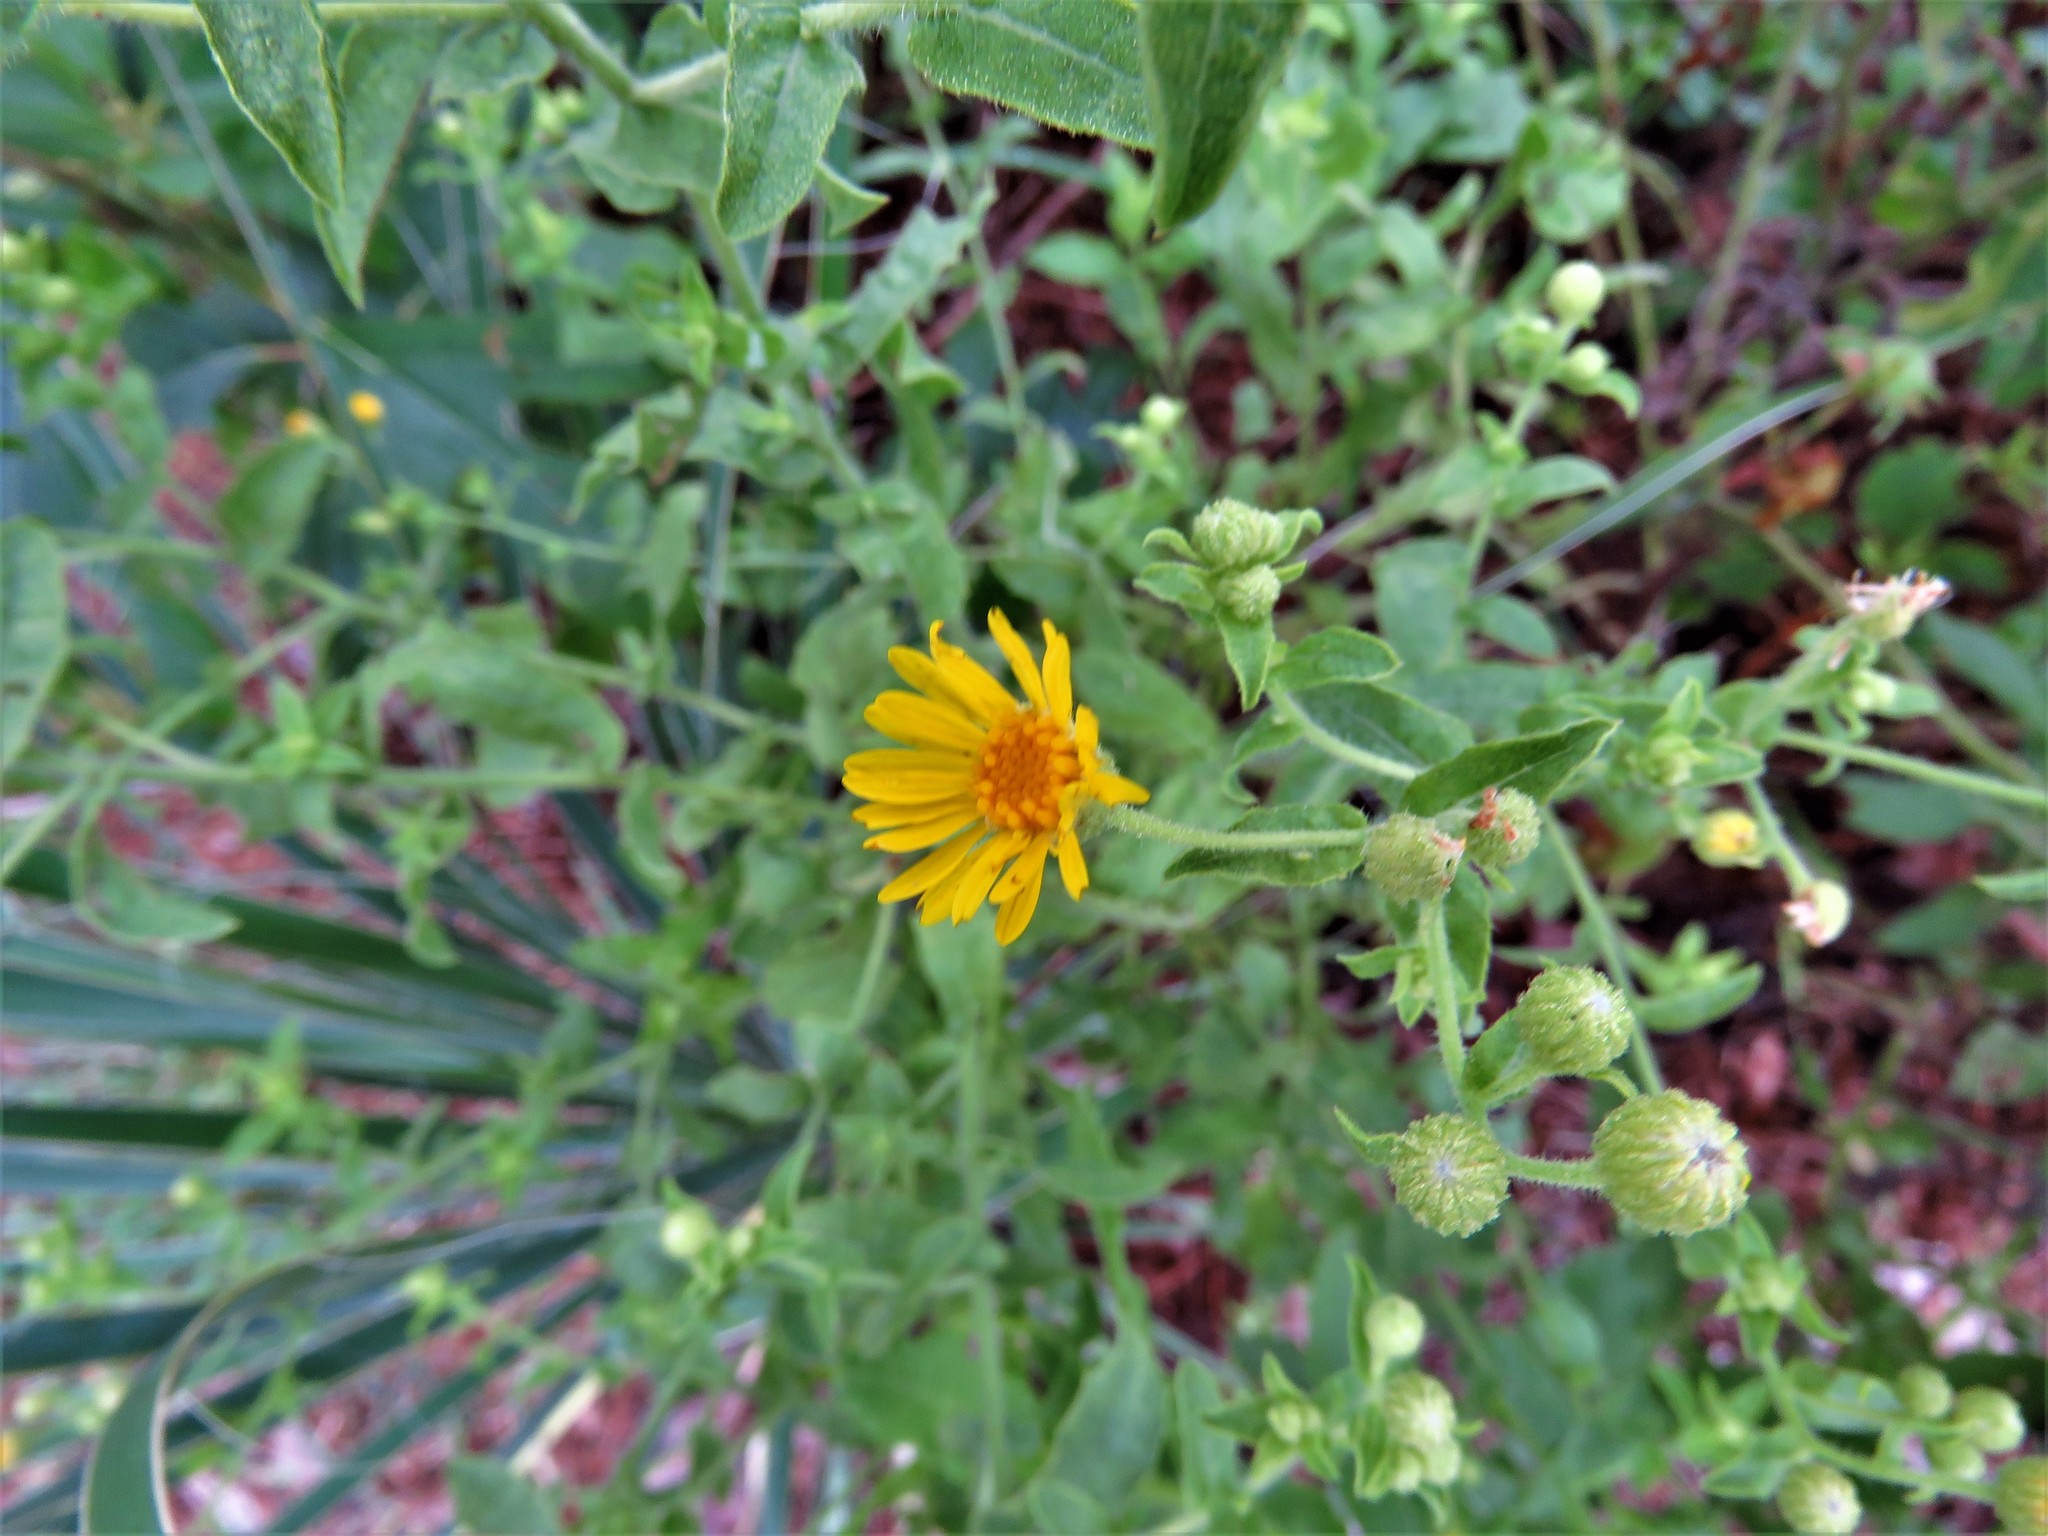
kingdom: Plantae
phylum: Tracheophyta
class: Magnoliopsida
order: Asterales
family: Asteraceae
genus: Heterotheca
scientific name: Heterotheca subaxillaris
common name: Camphorweed
